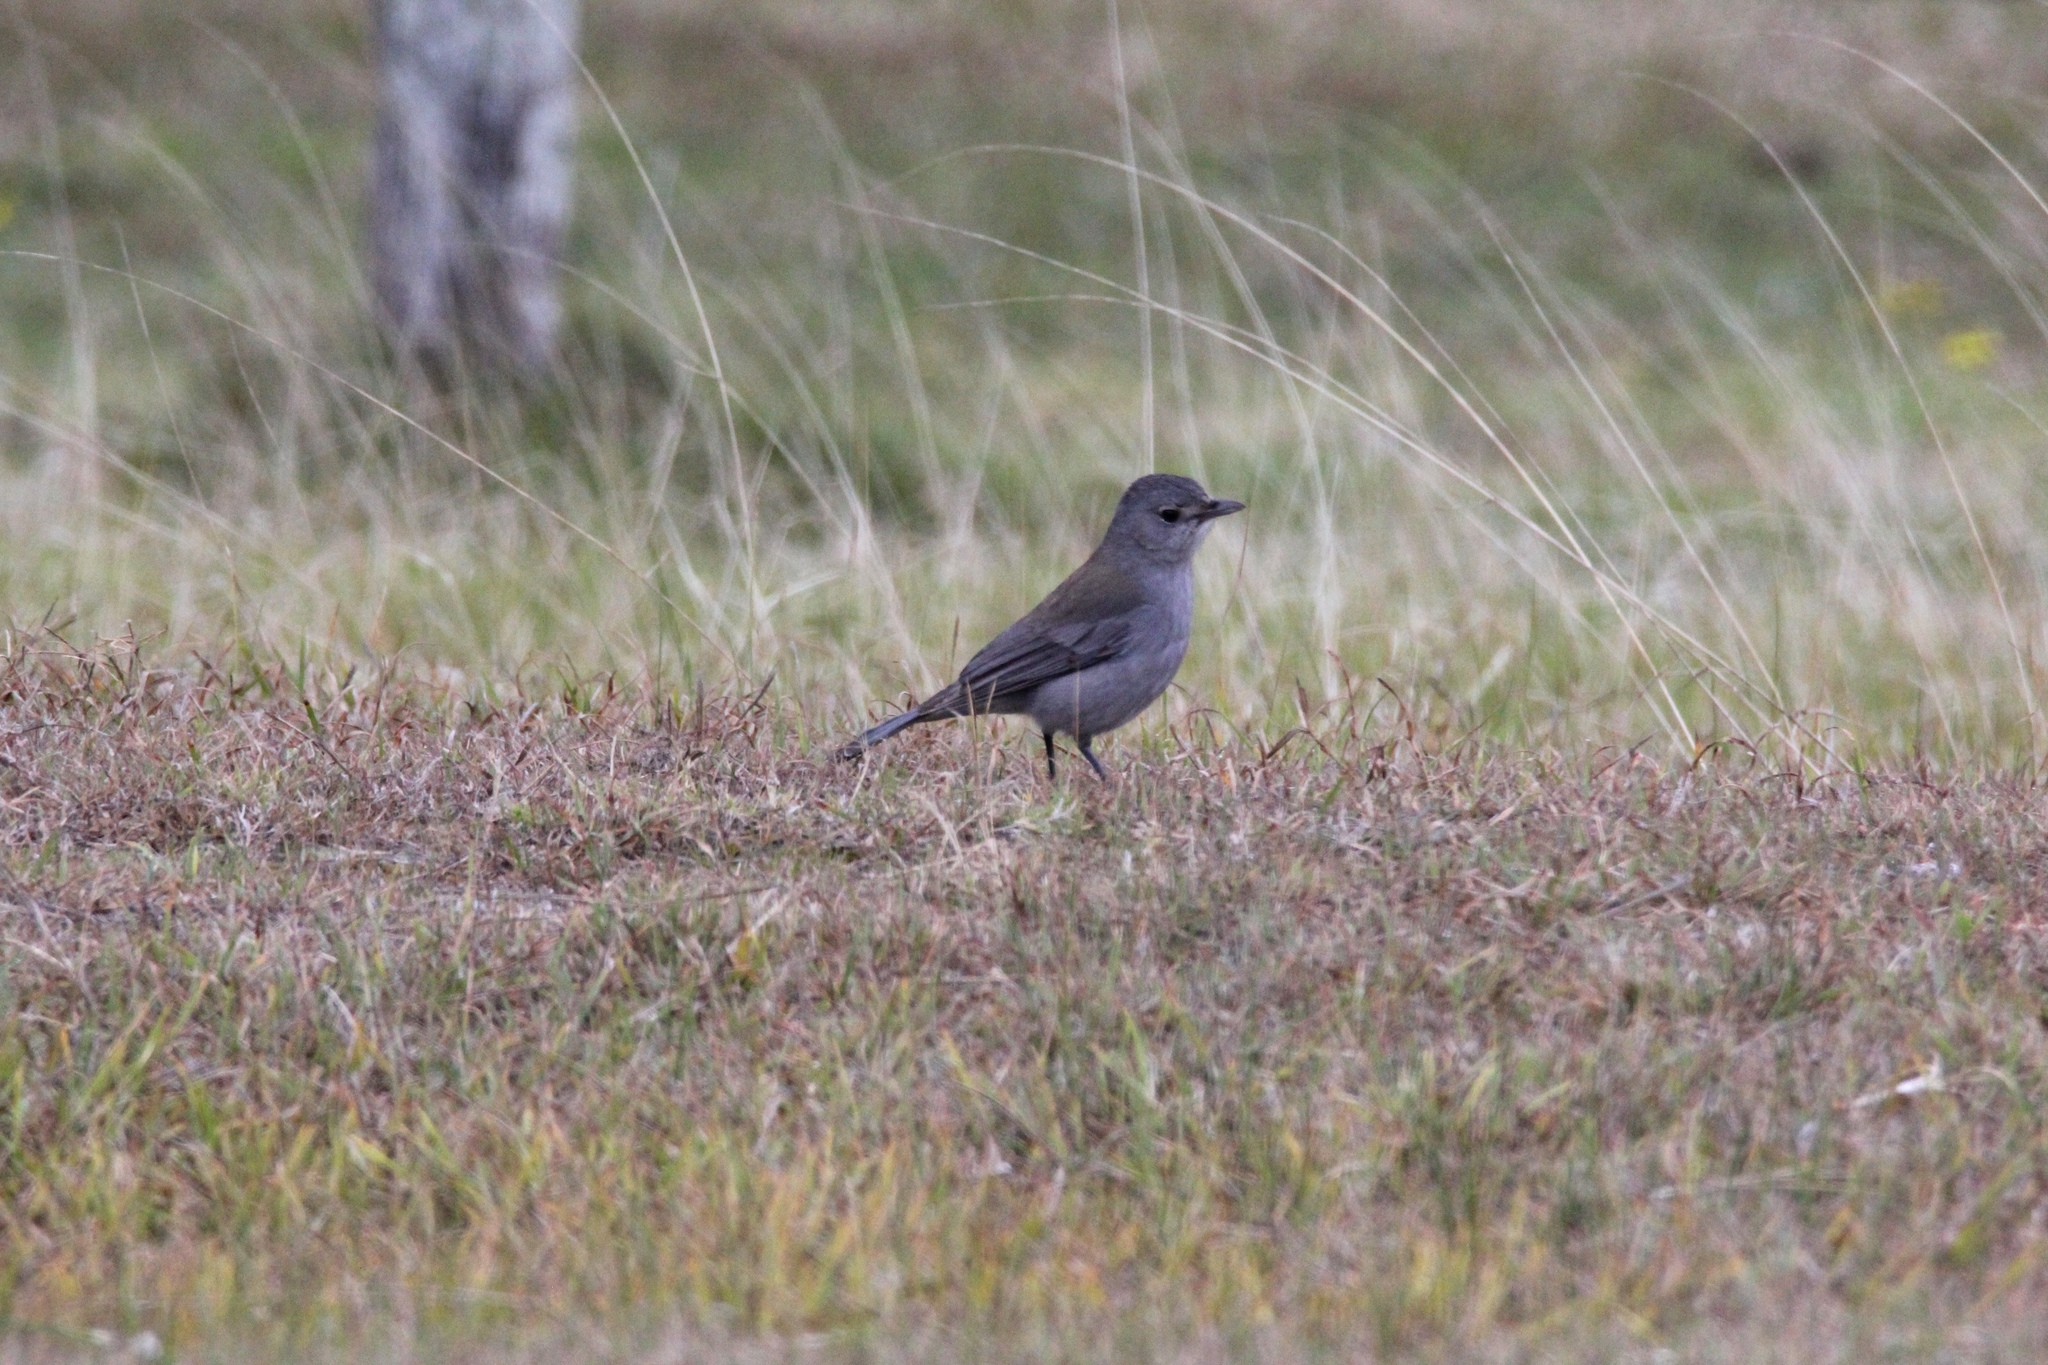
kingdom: Animalia
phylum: Chordata
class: Aves
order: Passeriformes
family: Pachycephalidae
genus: Colluricincla
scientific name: Colluricincla harmonica
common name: Grey shrikethrush
